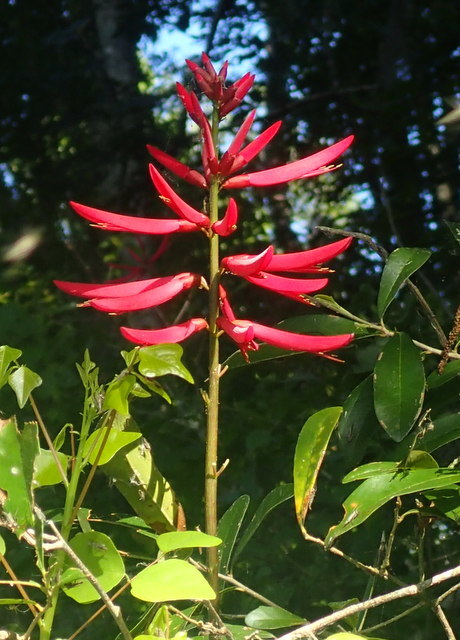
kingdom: Plantae
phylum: Tracheophyta
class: Magnoliopsida
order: Fabales
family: Fabaceae
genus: Erythrina
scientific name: Erythrina herbacea
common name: Coral-bean
